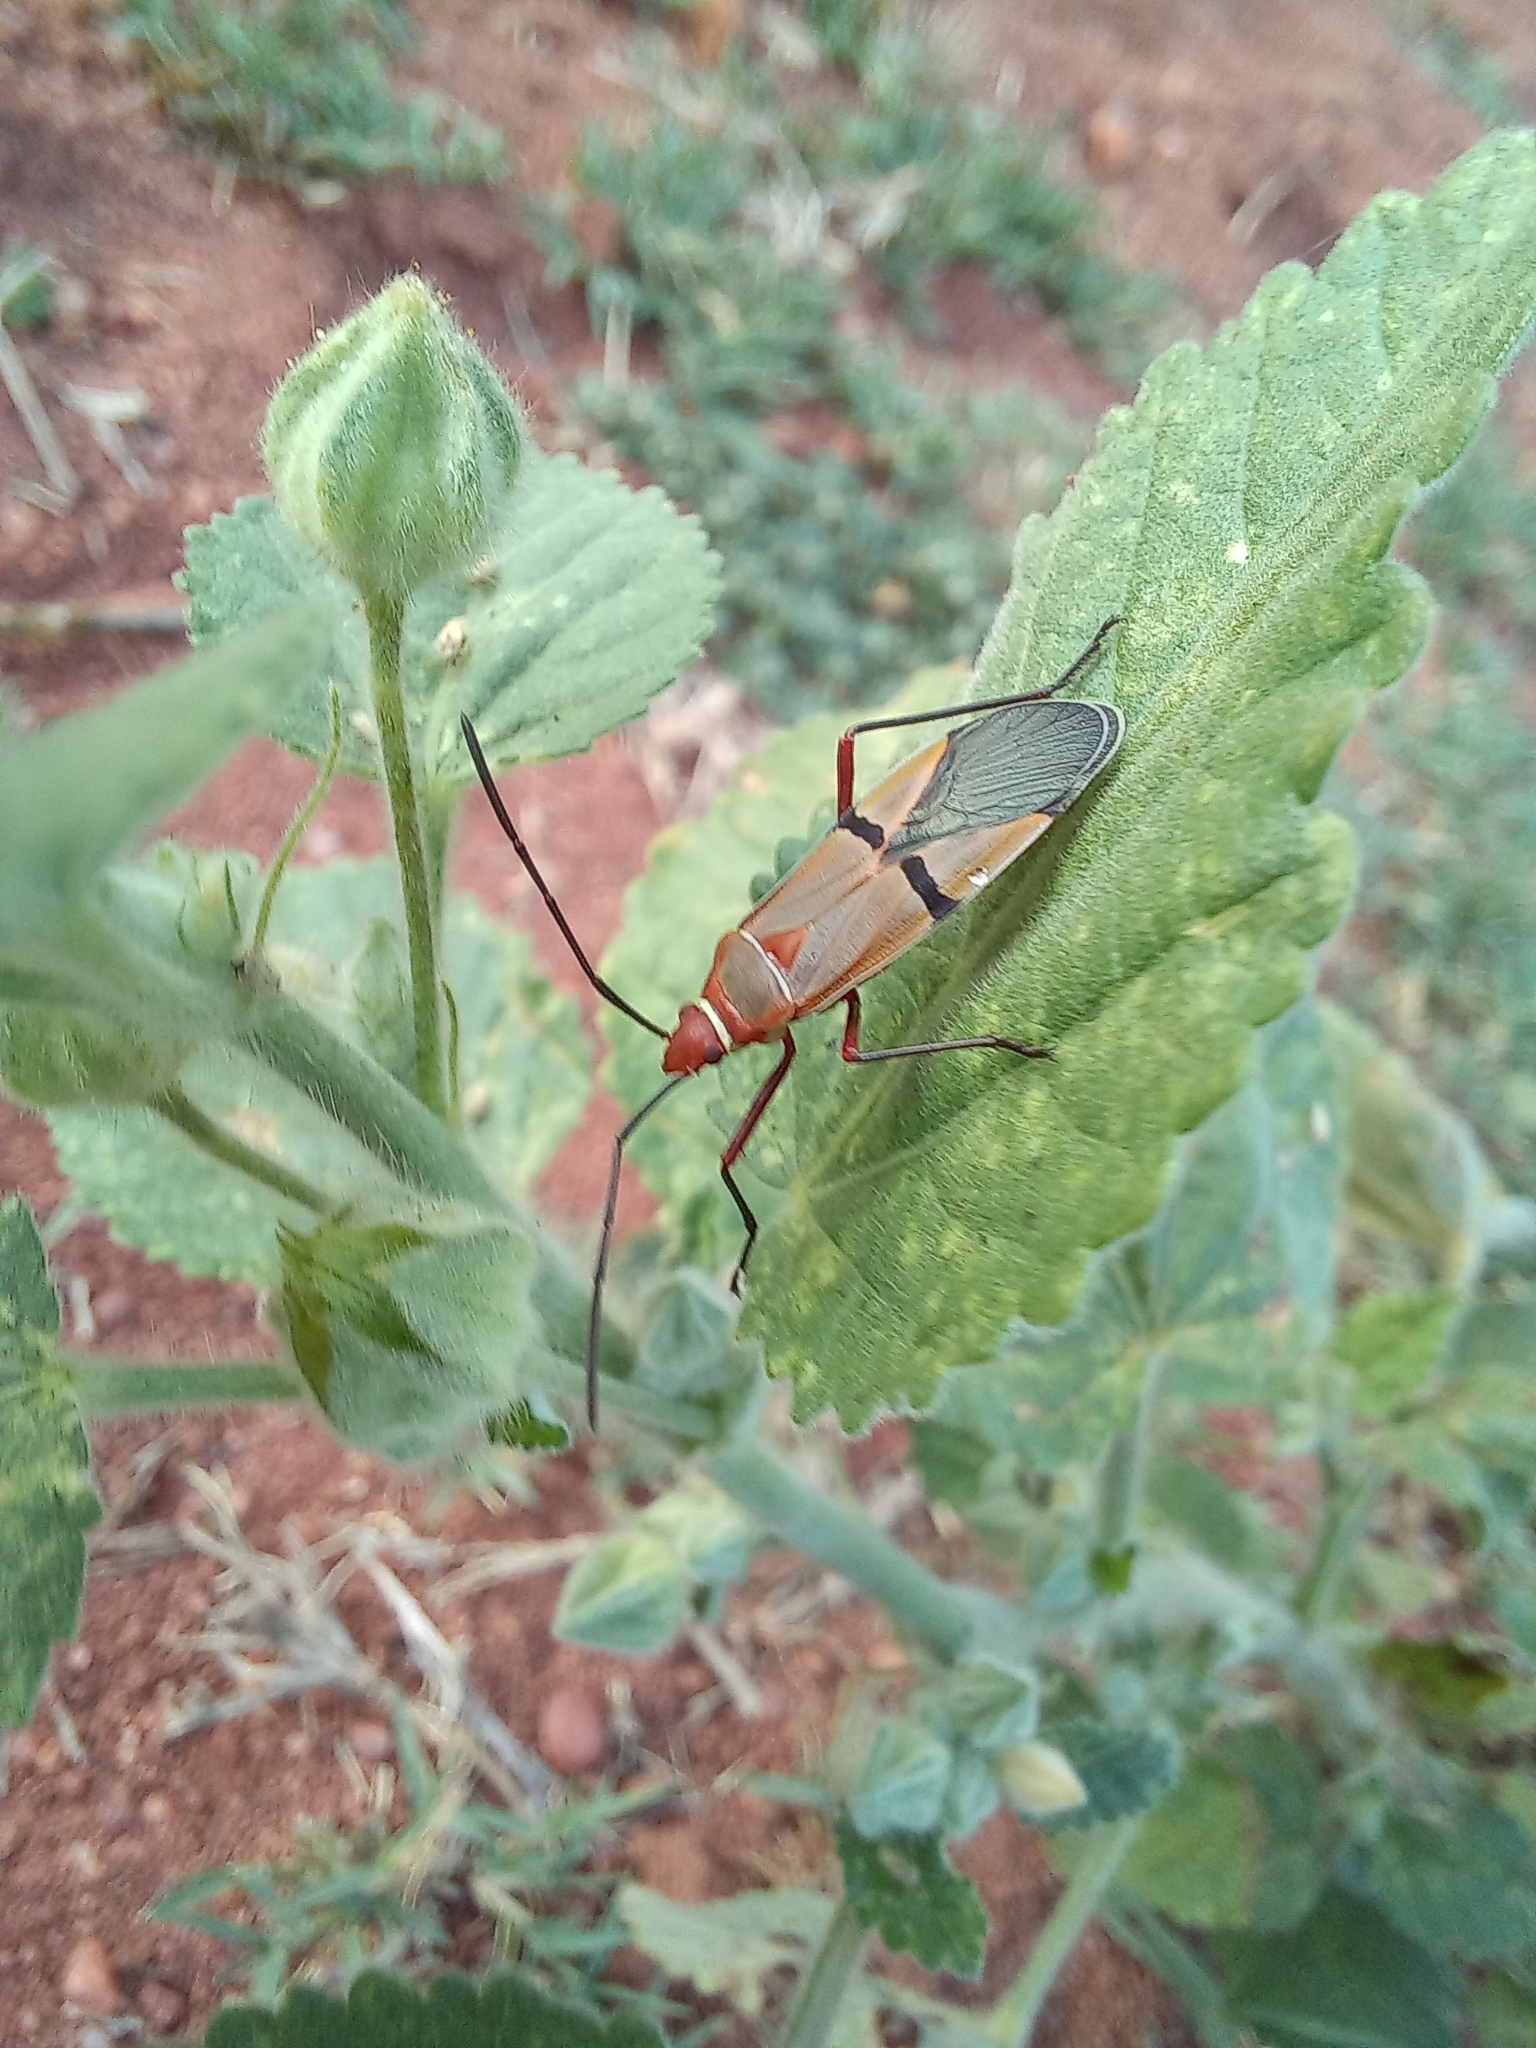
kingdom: Animalia
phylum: Arthropoda
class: Insecta
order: Hemiptera
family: Pyrrhocoridae
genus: Dysdercus
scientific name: Dysdercus
